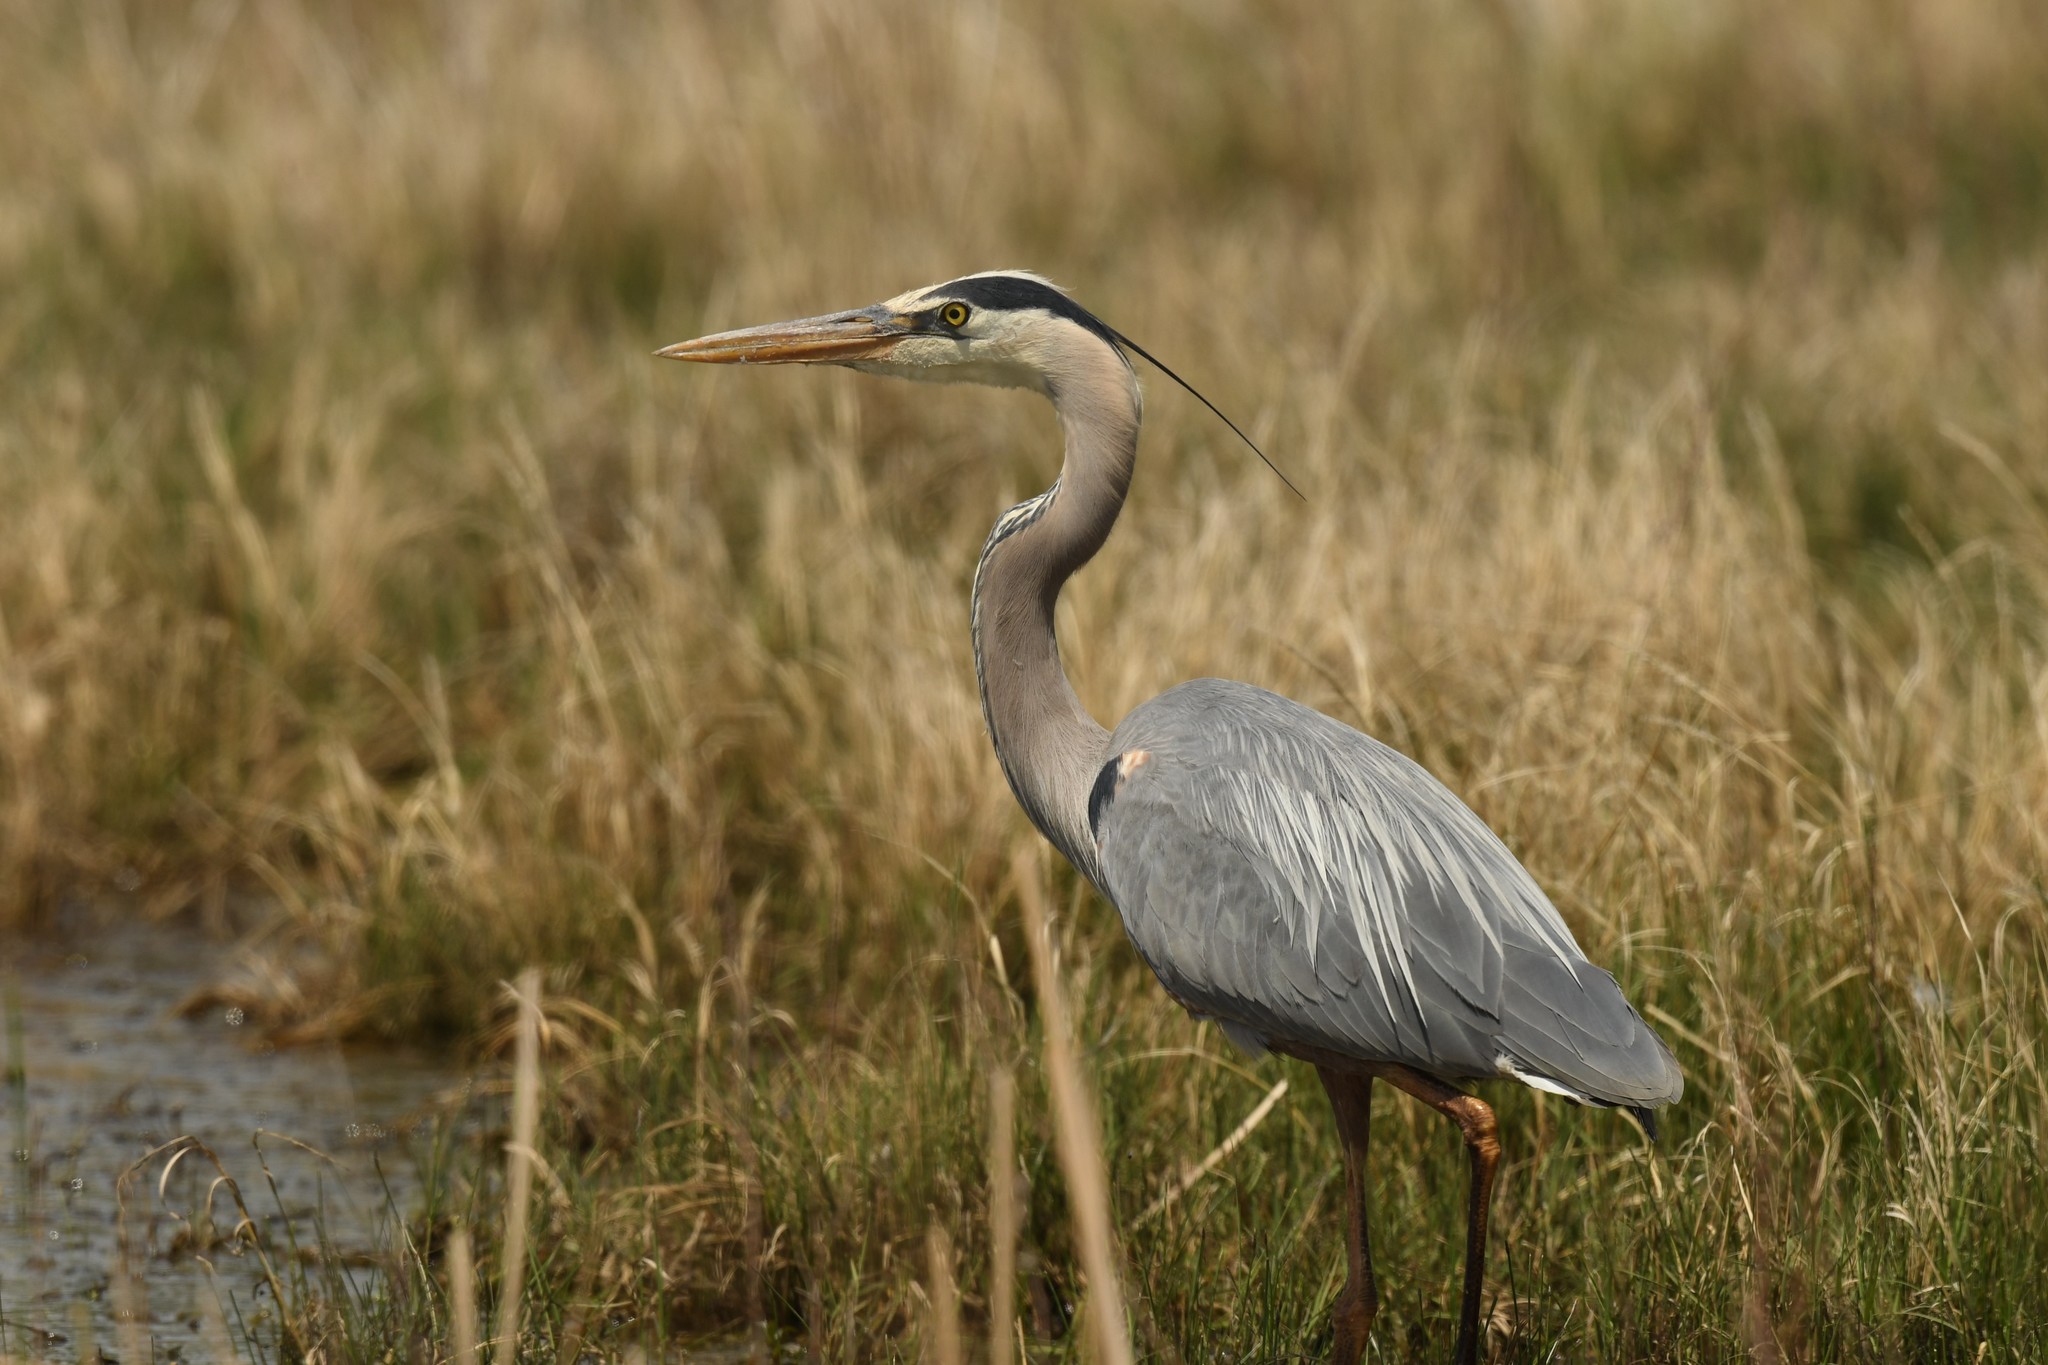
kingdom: Animalia
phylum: Chordata
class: Aves
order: Pelecaniformes
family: Ardeidae
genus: Ardea
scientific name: Ardea herodias
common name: Great blue heron
